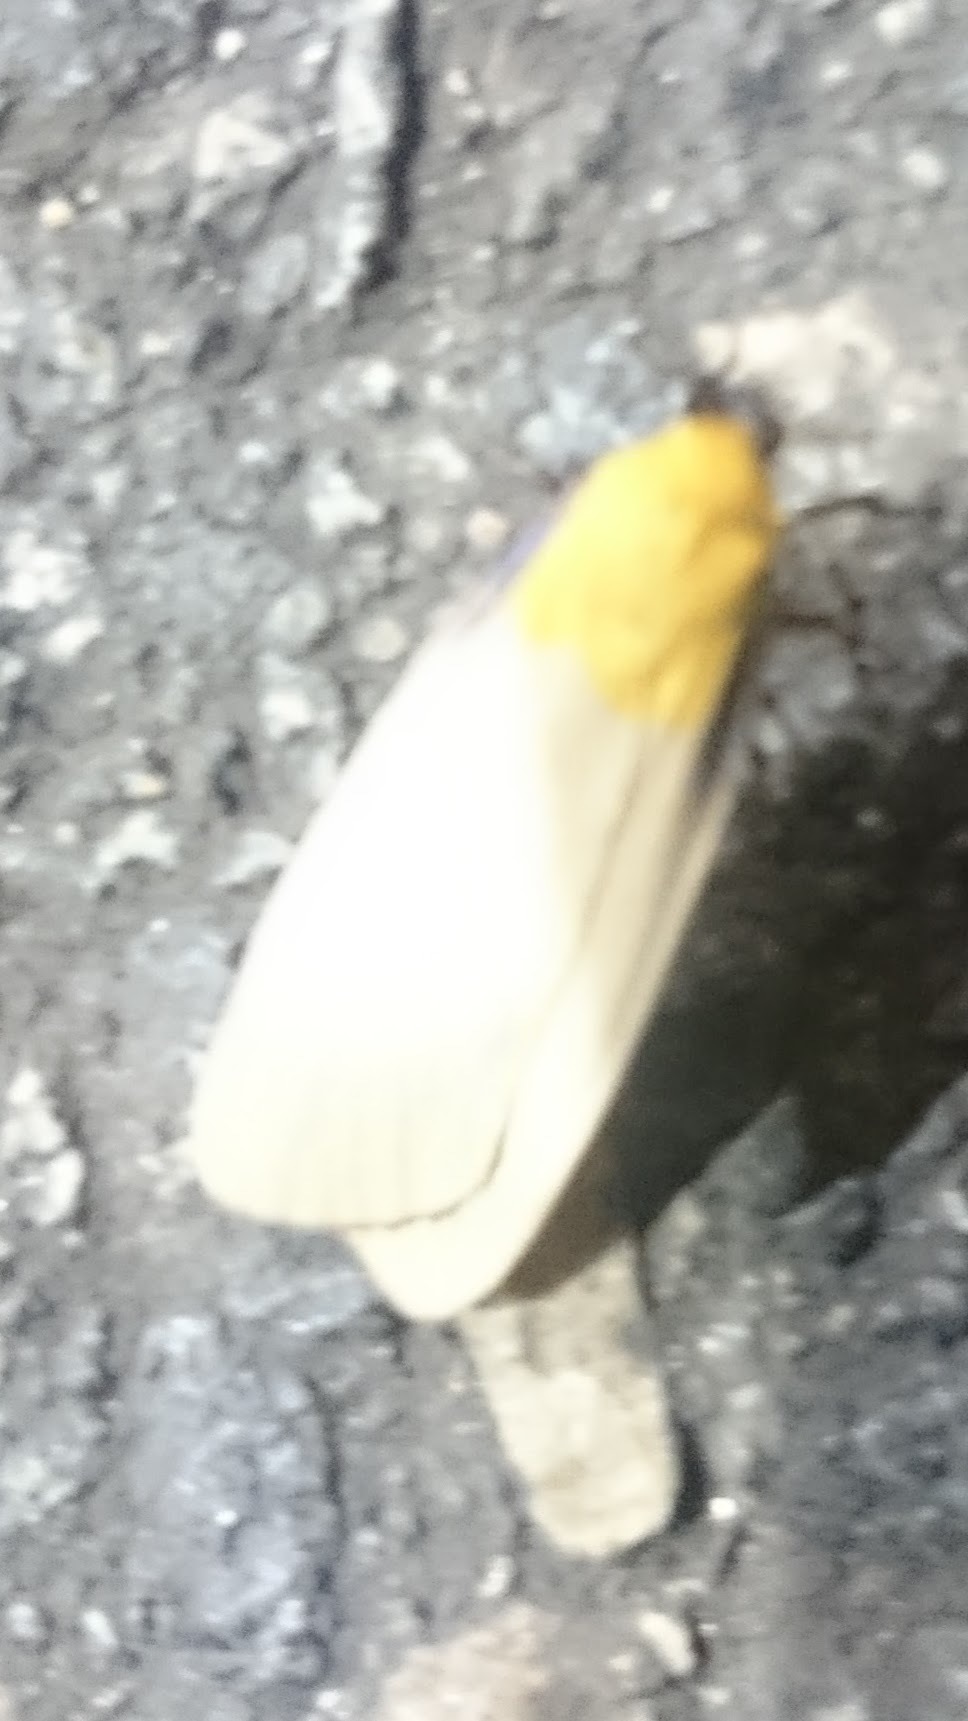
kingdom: Animalia
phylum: Arthropoda
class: Insecta
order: Lepidoptera
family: Erebidae
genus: Lithosia
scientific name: Lithosia quadra
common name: Four-spotted footman
